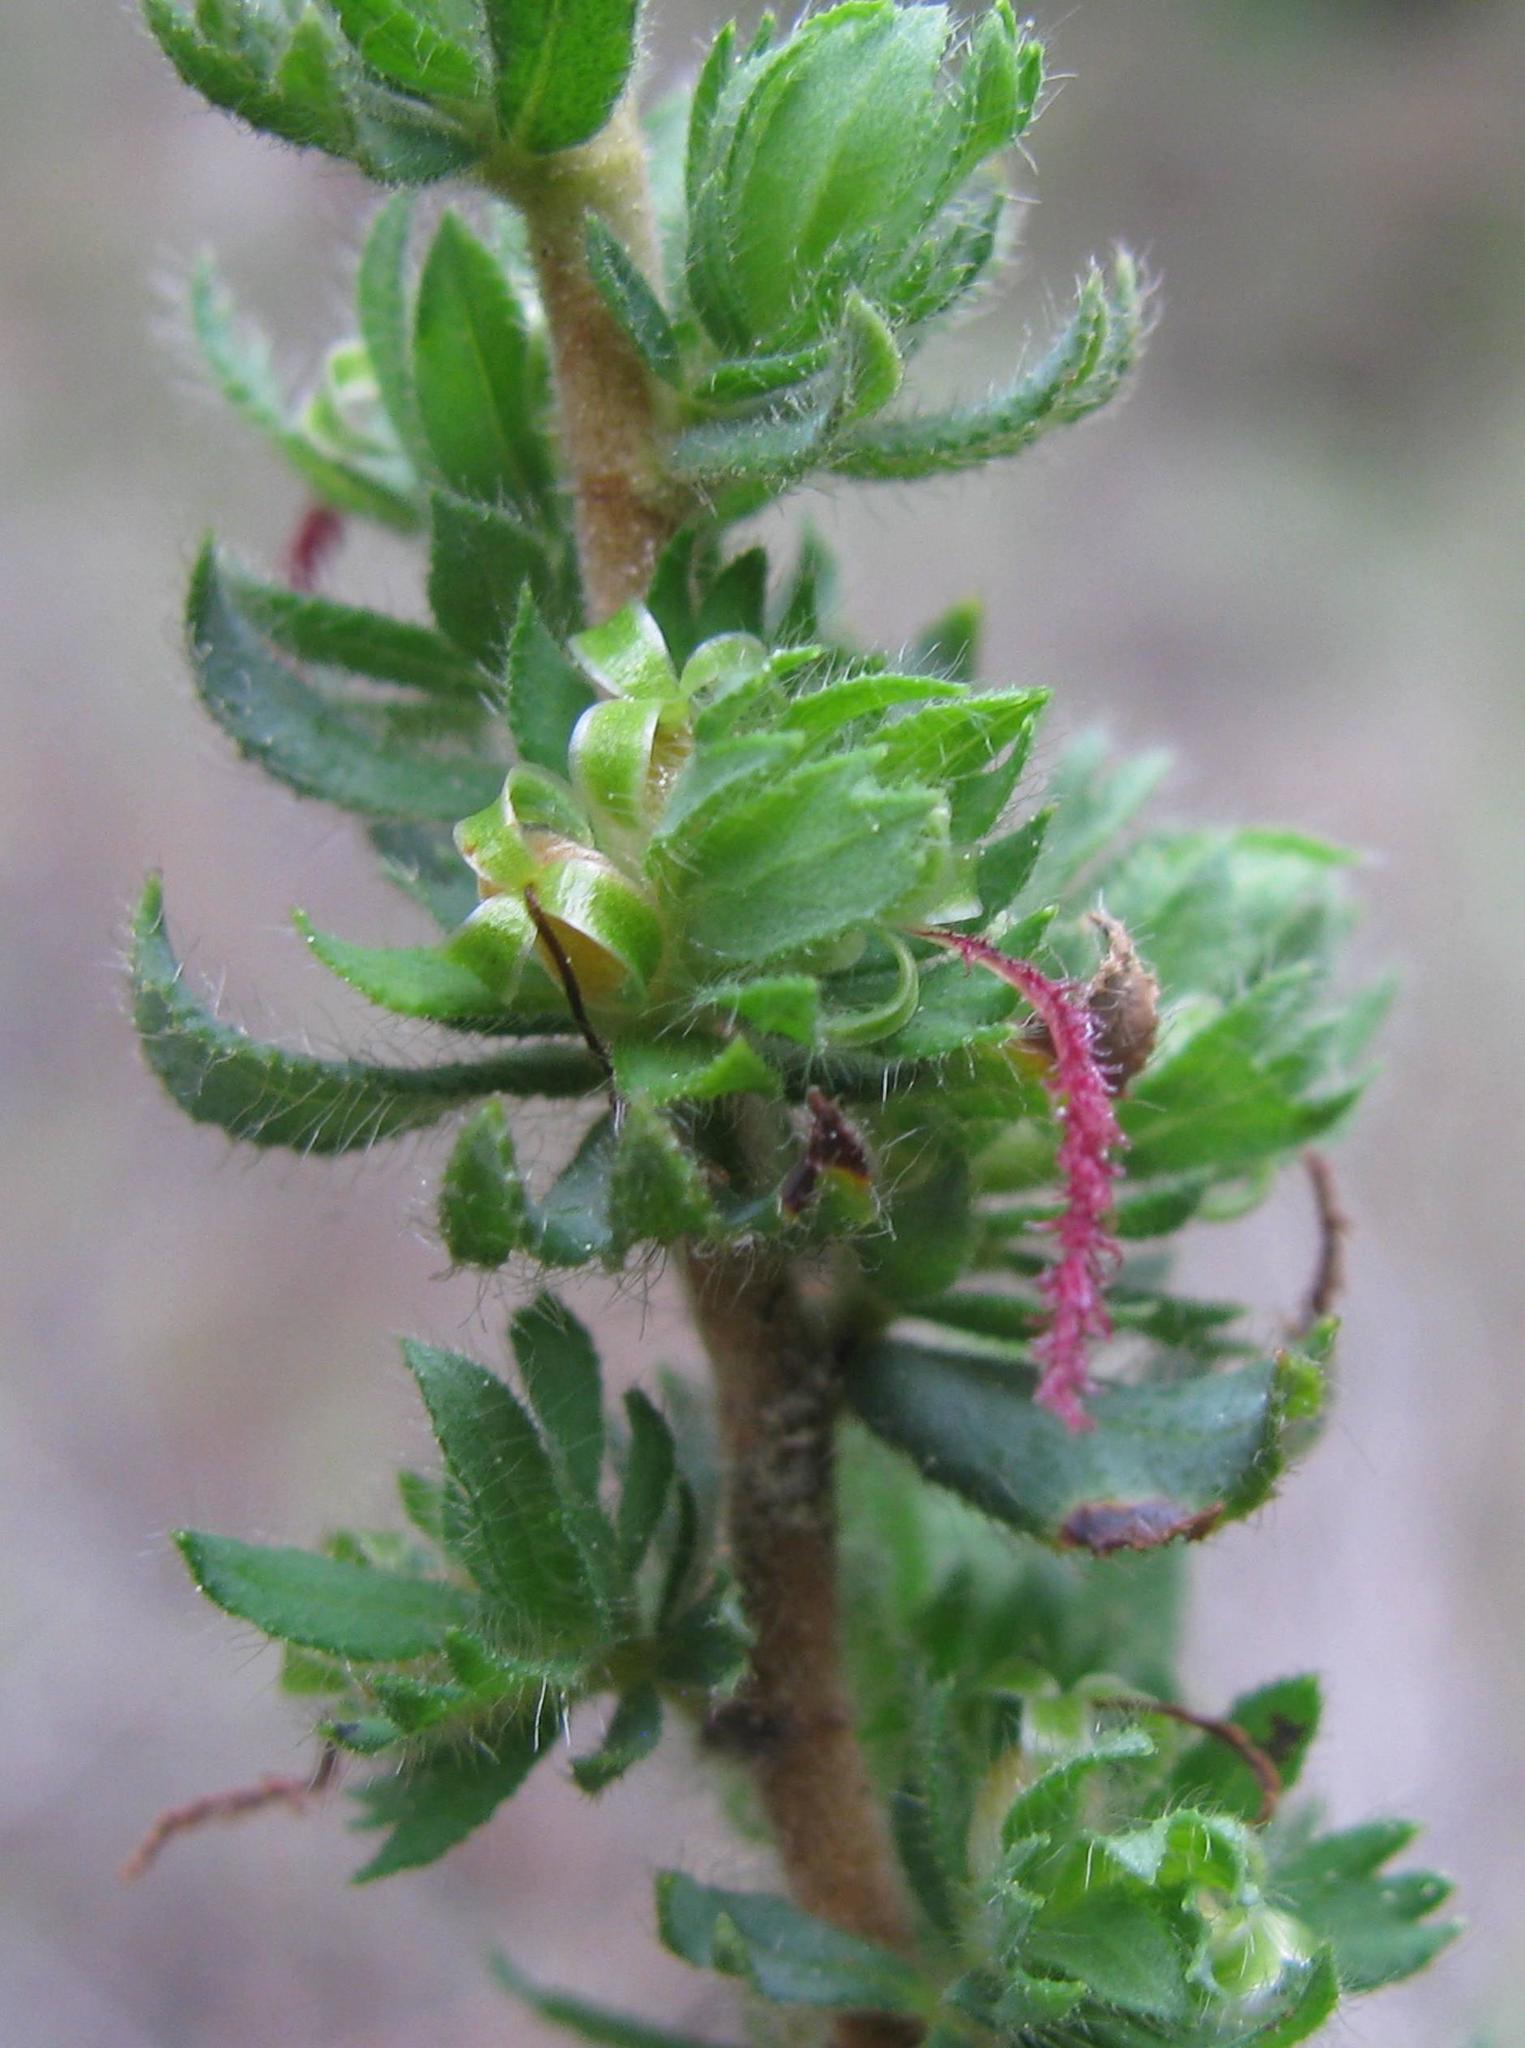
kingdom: Plantae
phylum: Tracheophyta
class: Magnoliopsida
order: Rosales
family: Rosaceae
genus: Cliffortia
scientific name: Cliffortia polygonifolia
